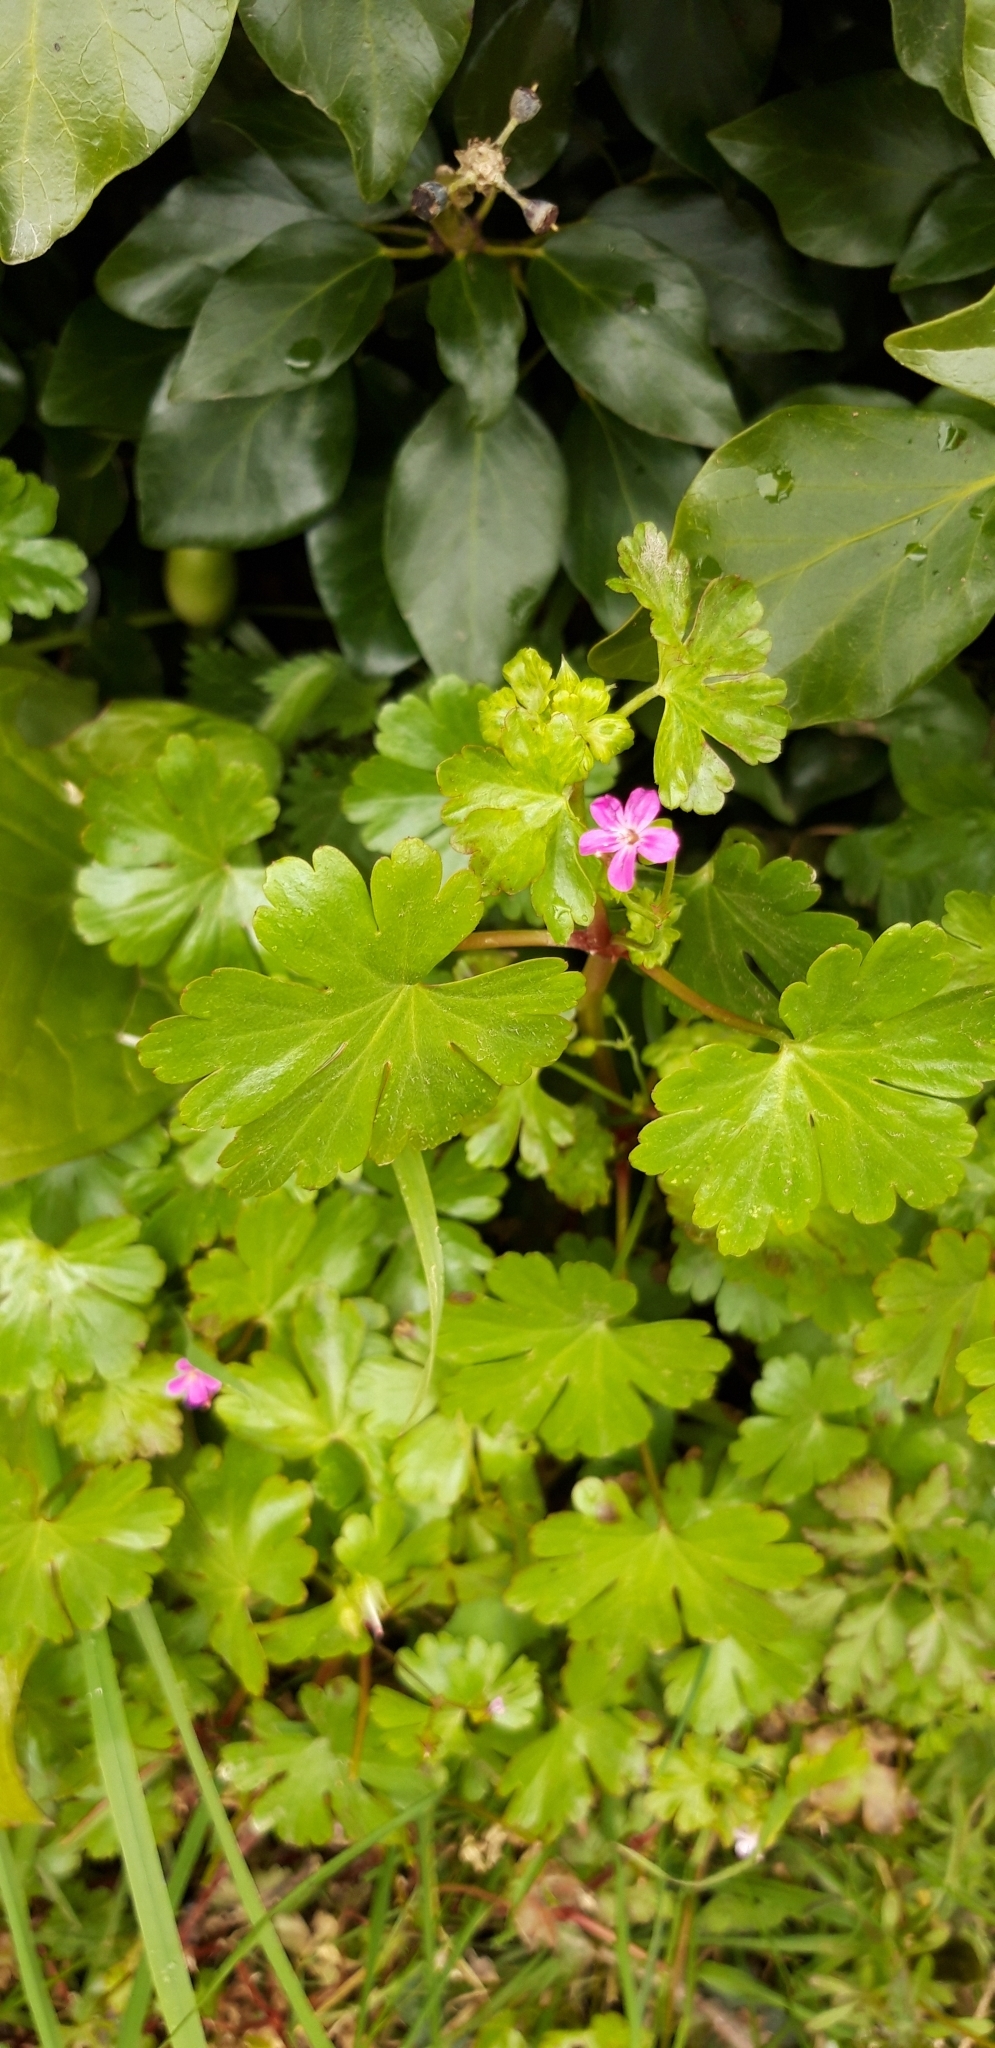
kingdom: Plantae
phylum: Tracheophyta
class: Magnoliopsida
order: Geraniales
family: Geraniaceae
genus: Geranium
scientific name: Geranium lucidum
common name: Shining crane's-bill
